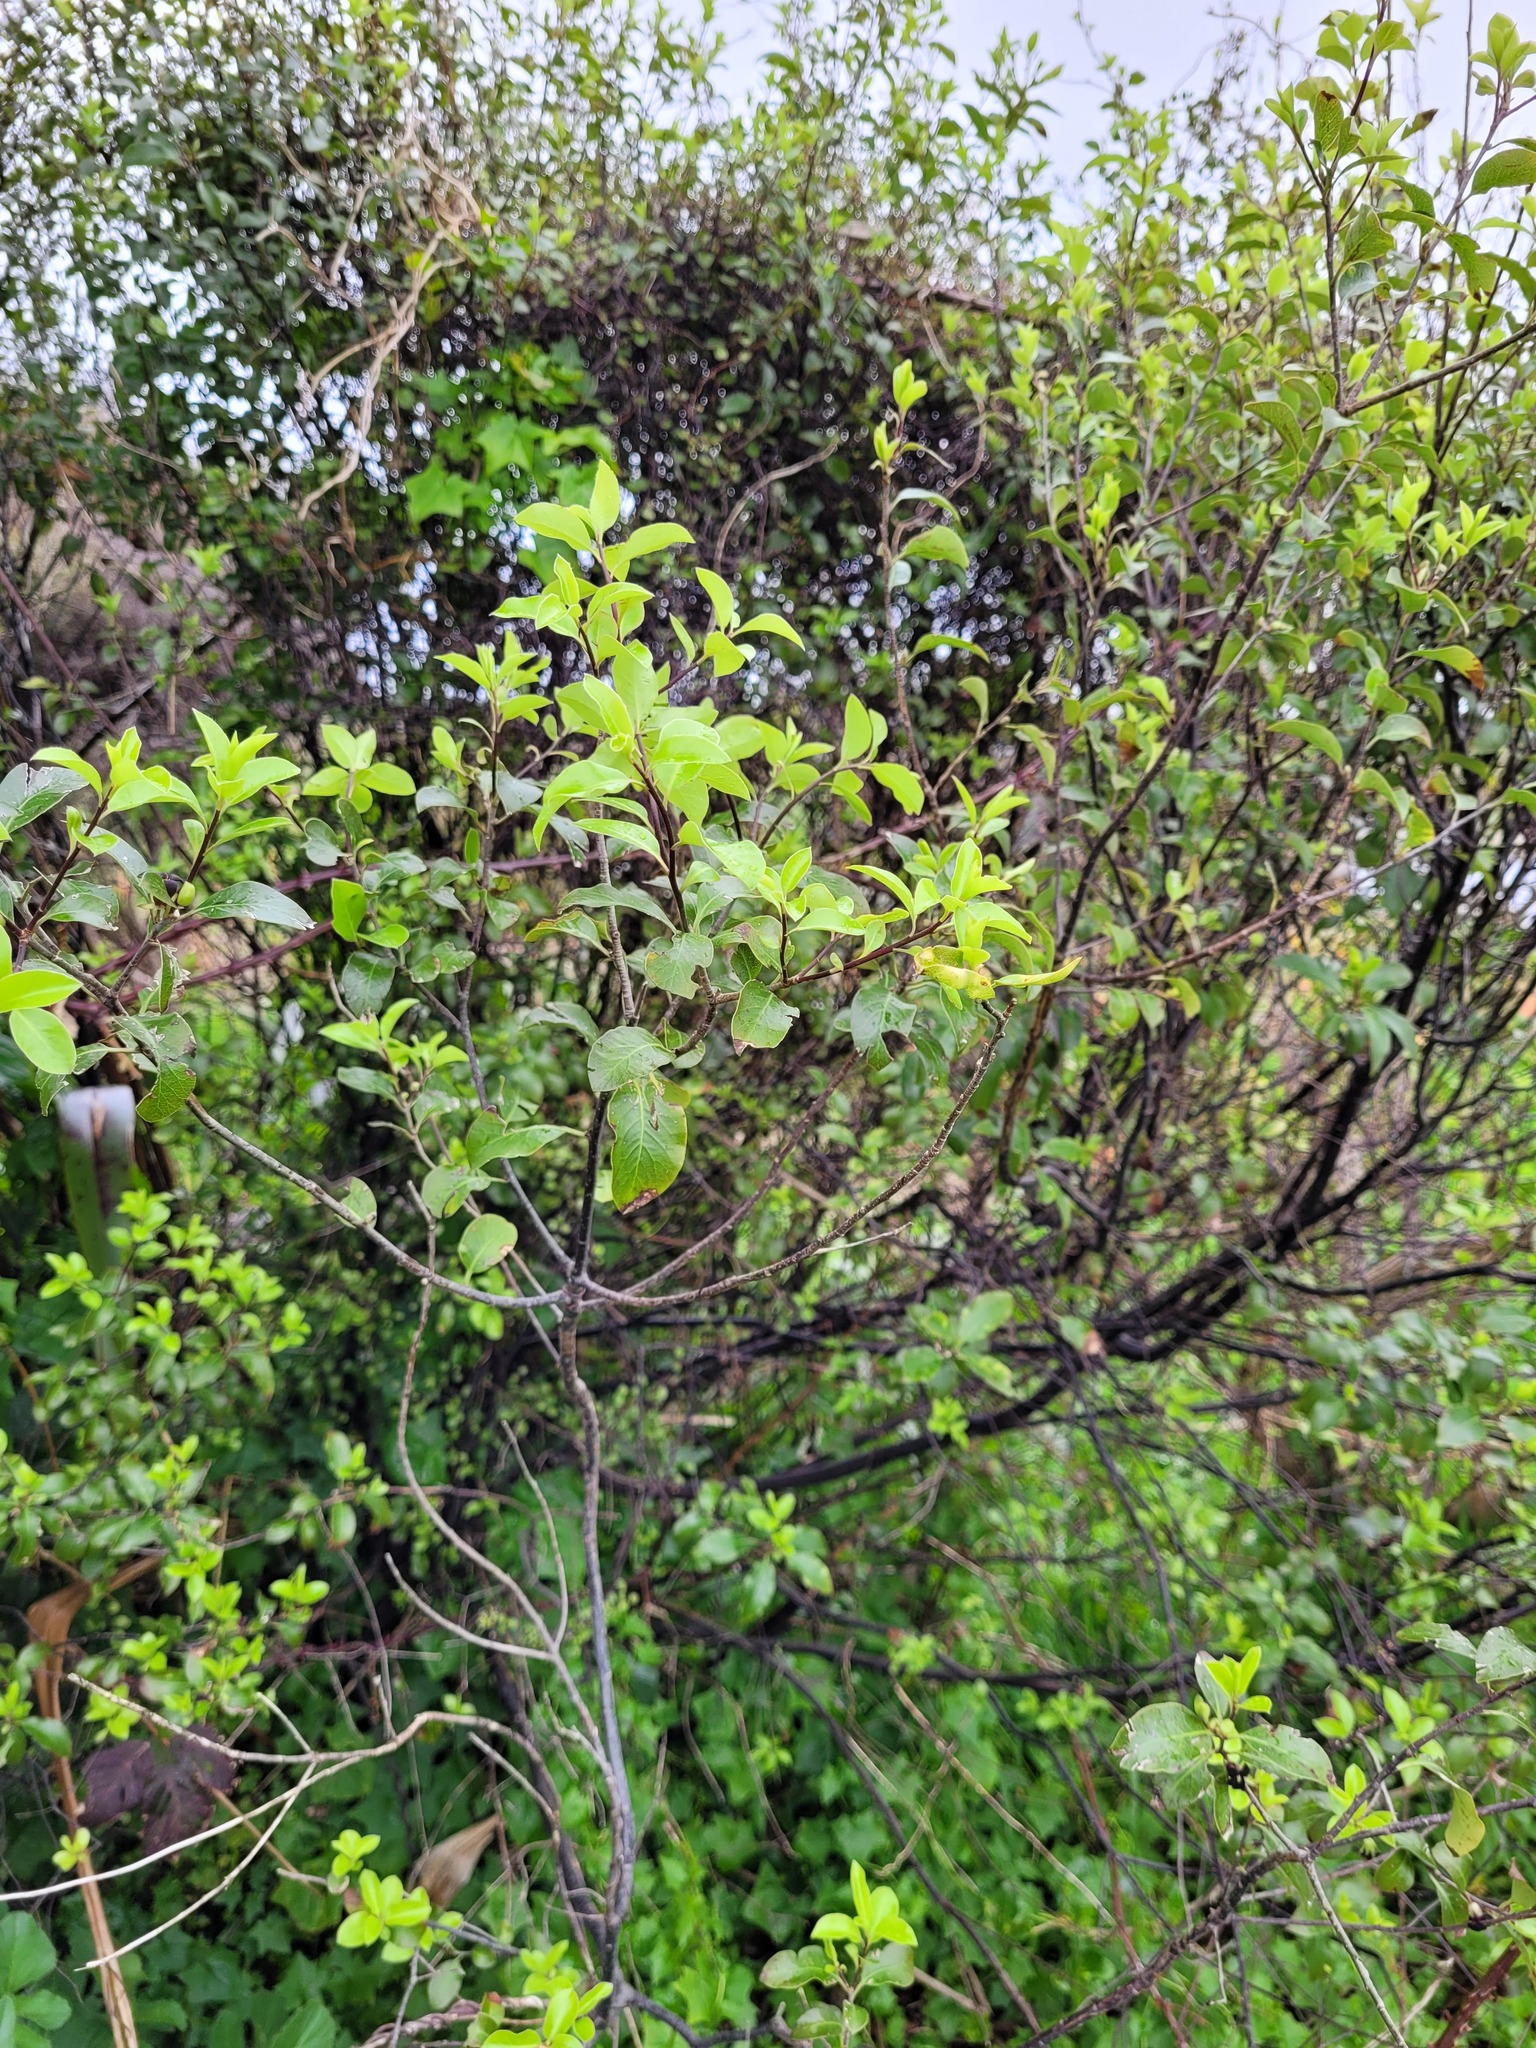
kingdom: Plantae
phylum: Tracheophyta
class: Magnoliopsida
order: Apiales
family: Pittosporaceae
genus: Pittosporum
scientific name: Pittosporum tenuifolium
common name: Kohuhu
